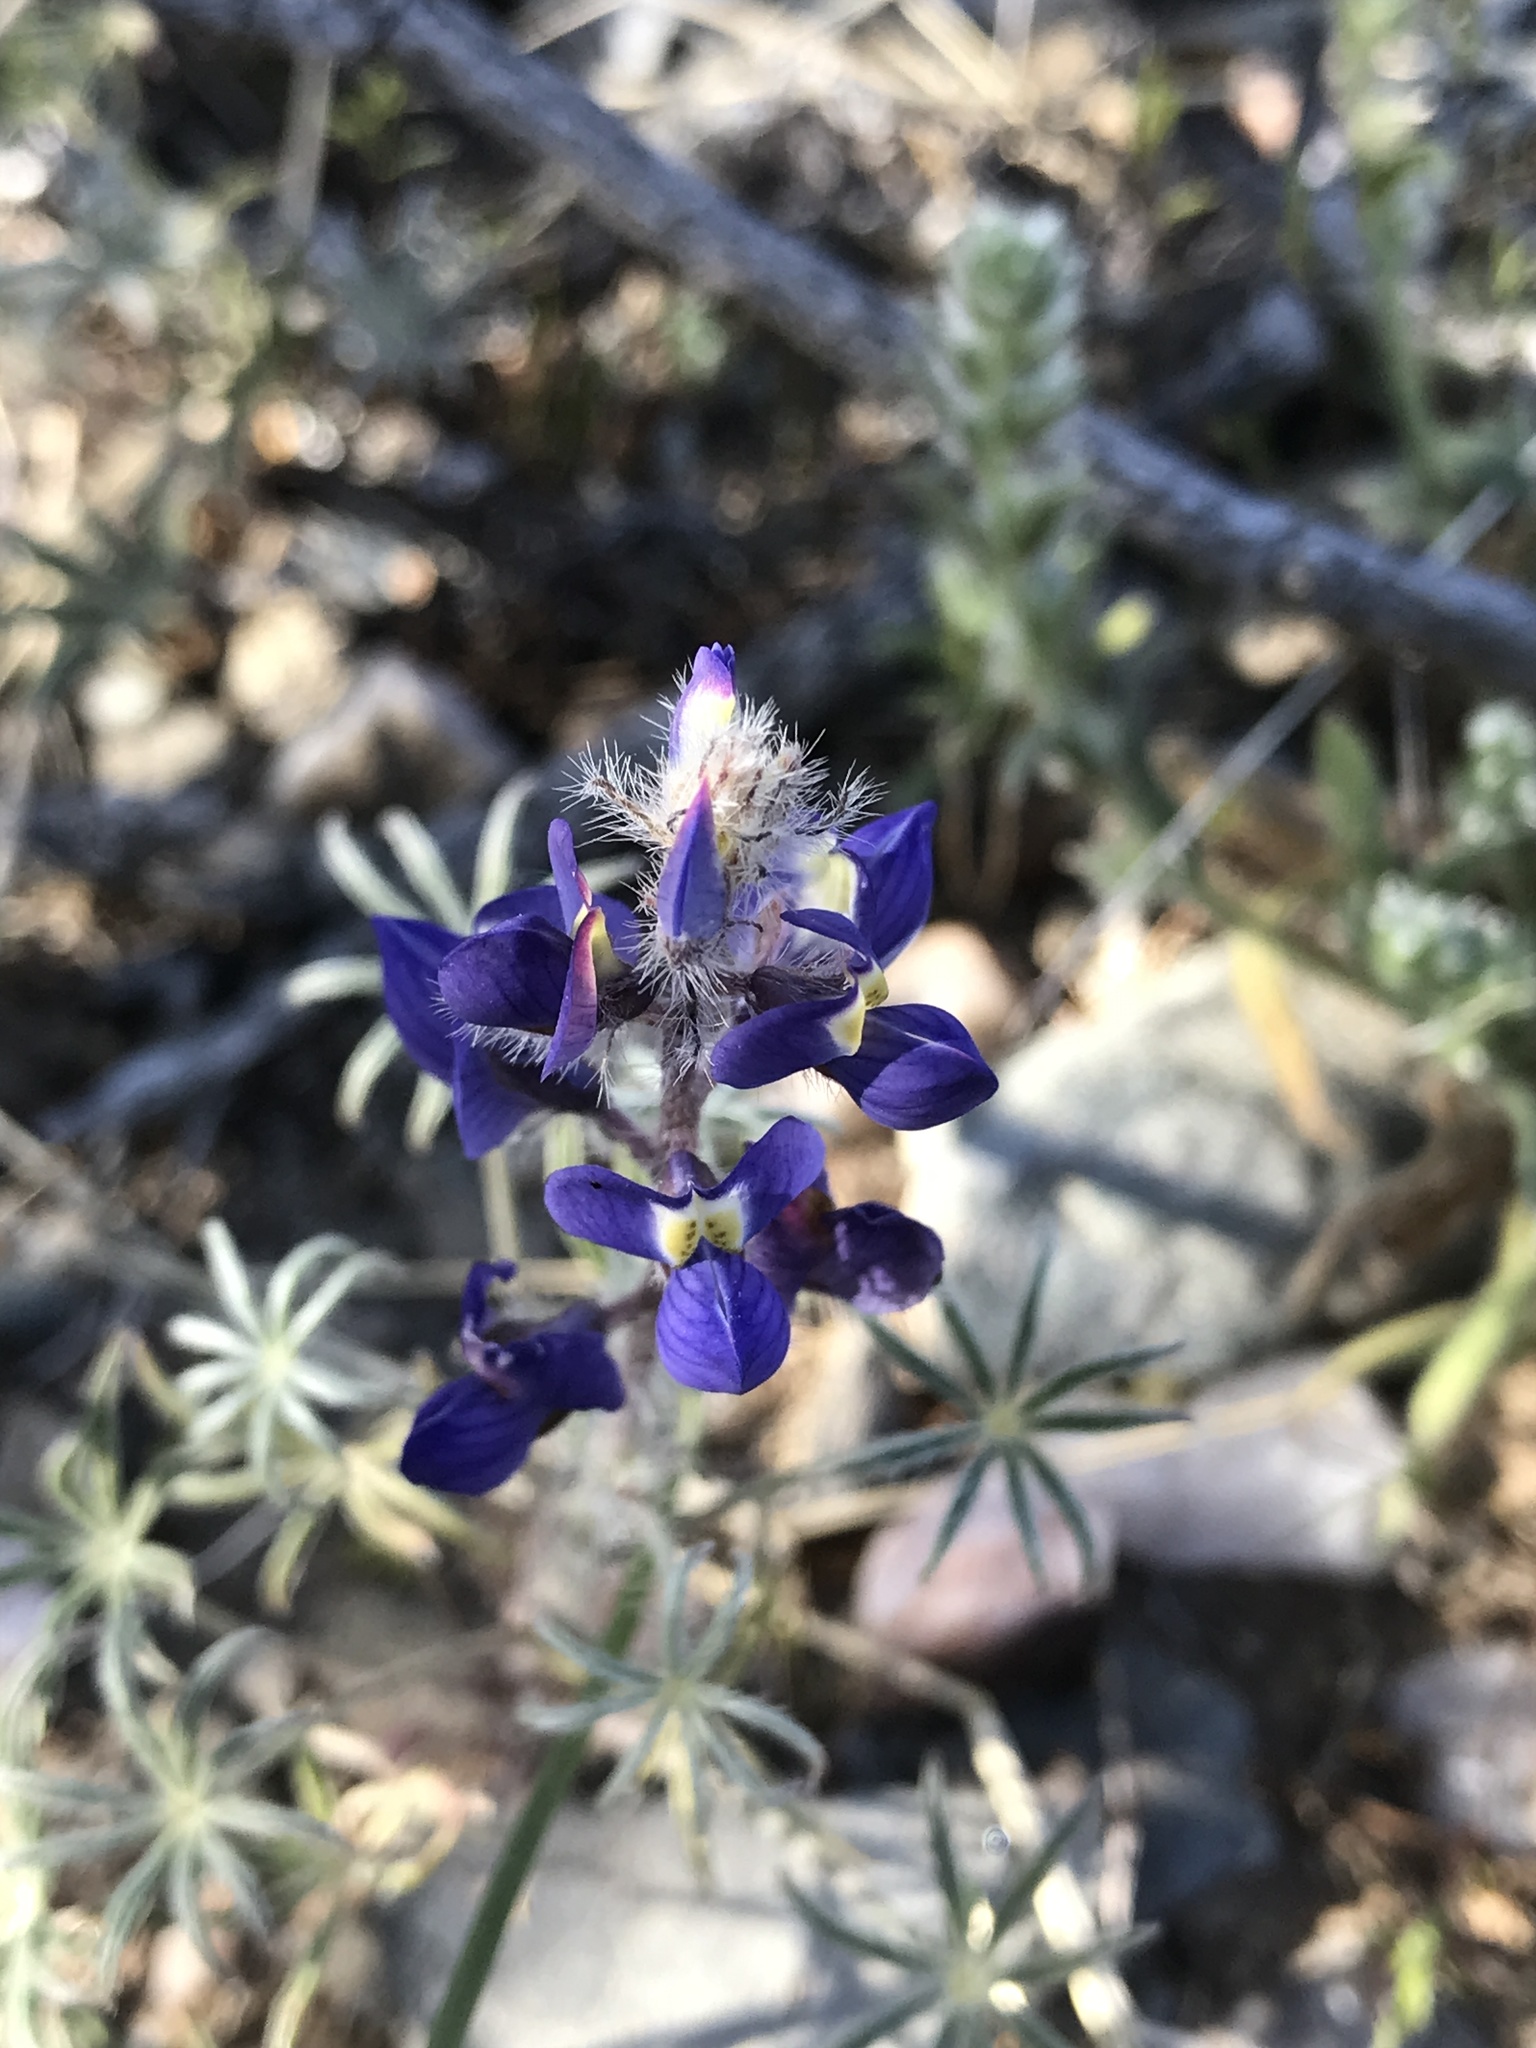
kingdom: Plantae
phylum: Tracheophyta
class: Magnoliopsida
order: Fabales
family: Fabaceae
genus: Lupinus
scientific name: Lupinus bicolor
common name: Miniature lupine
